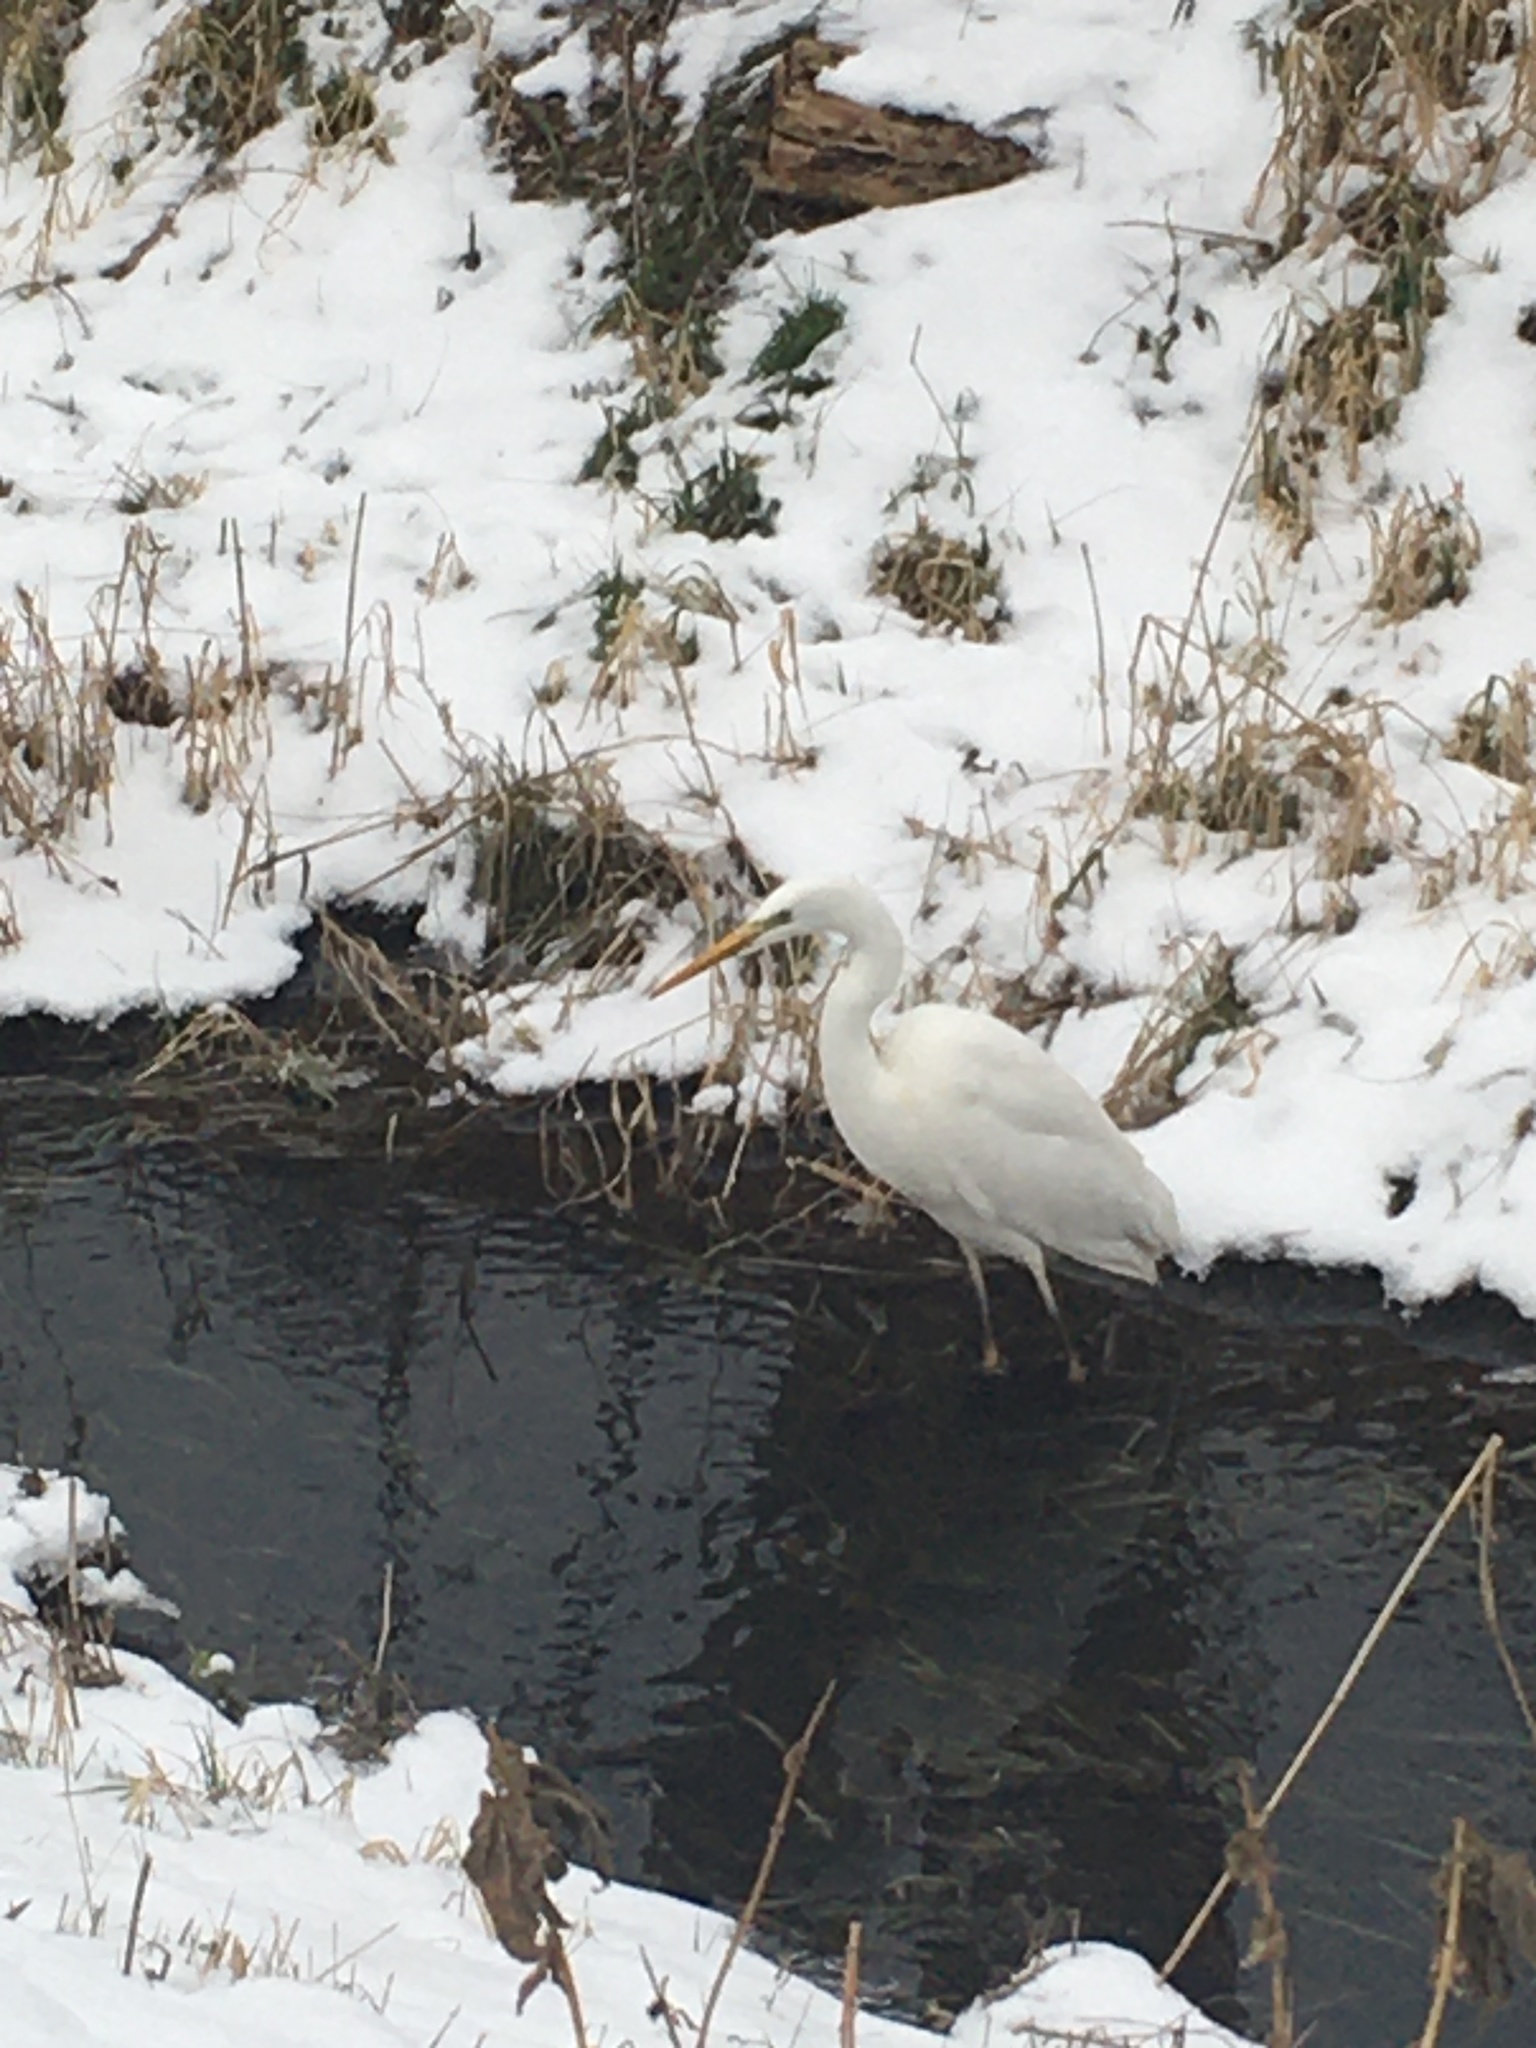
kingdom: Animalia
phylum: Chordata
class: Aves
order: Pelecaniformes
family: Ardeidae
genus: Ardea
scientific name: Ardea alba
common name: Great egret
